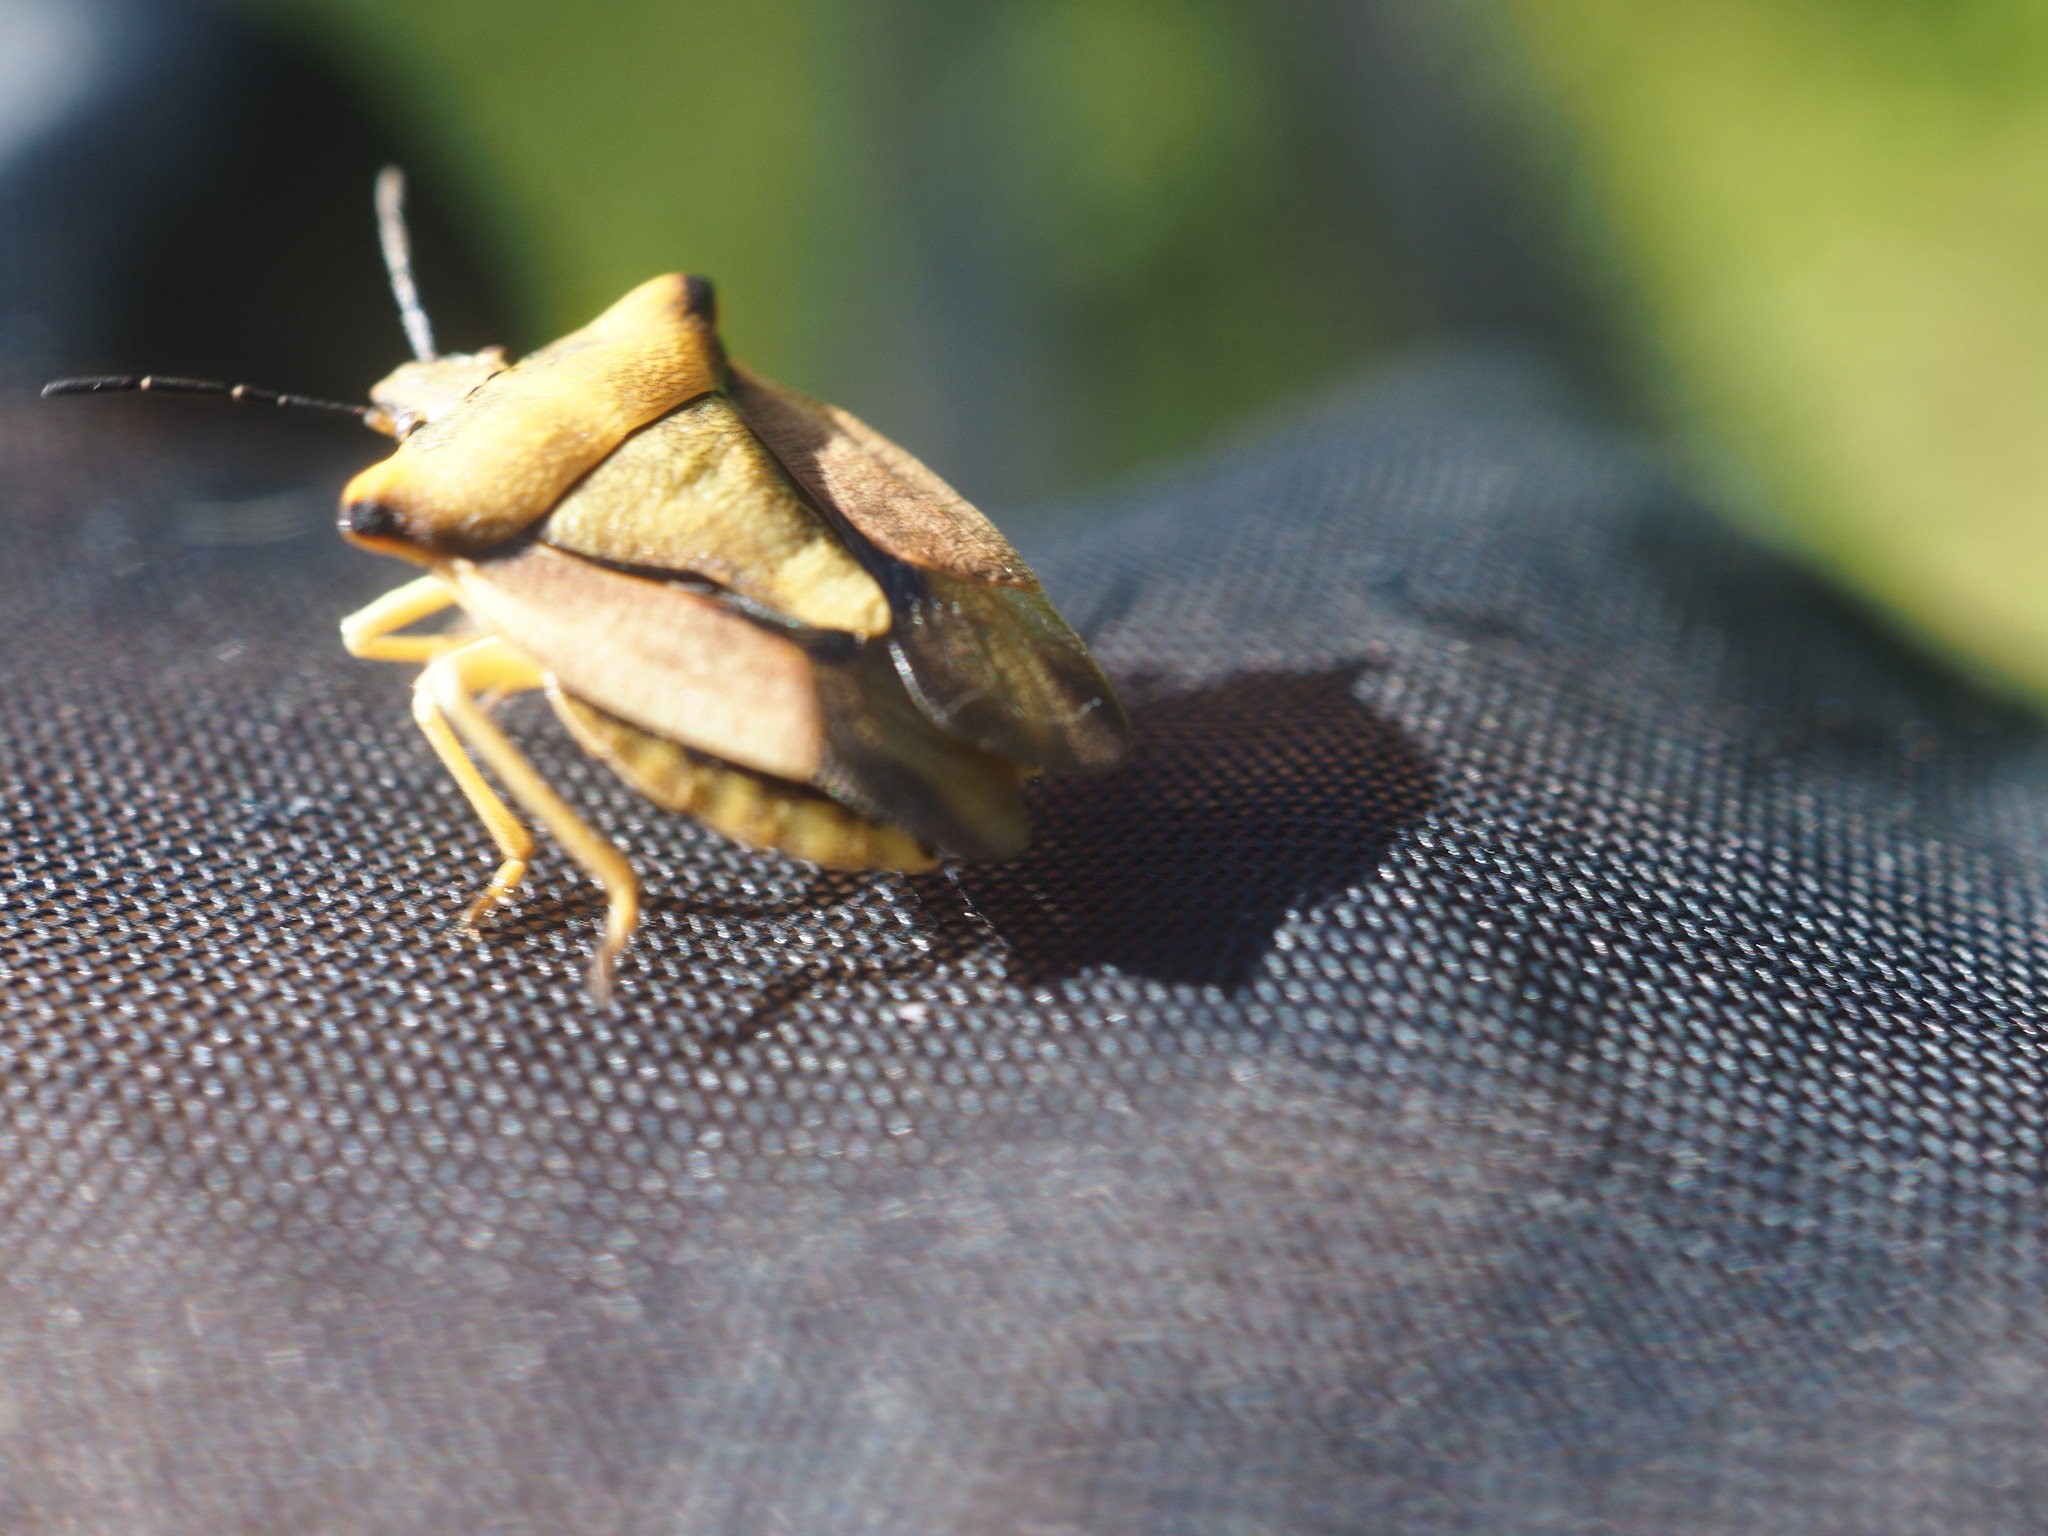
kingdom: Animalia
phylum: Arthropoda
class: Insecta
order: Hemiptera
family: Pentatomidae
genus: Carpocoris
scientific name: Carpocoris fuscispinus
